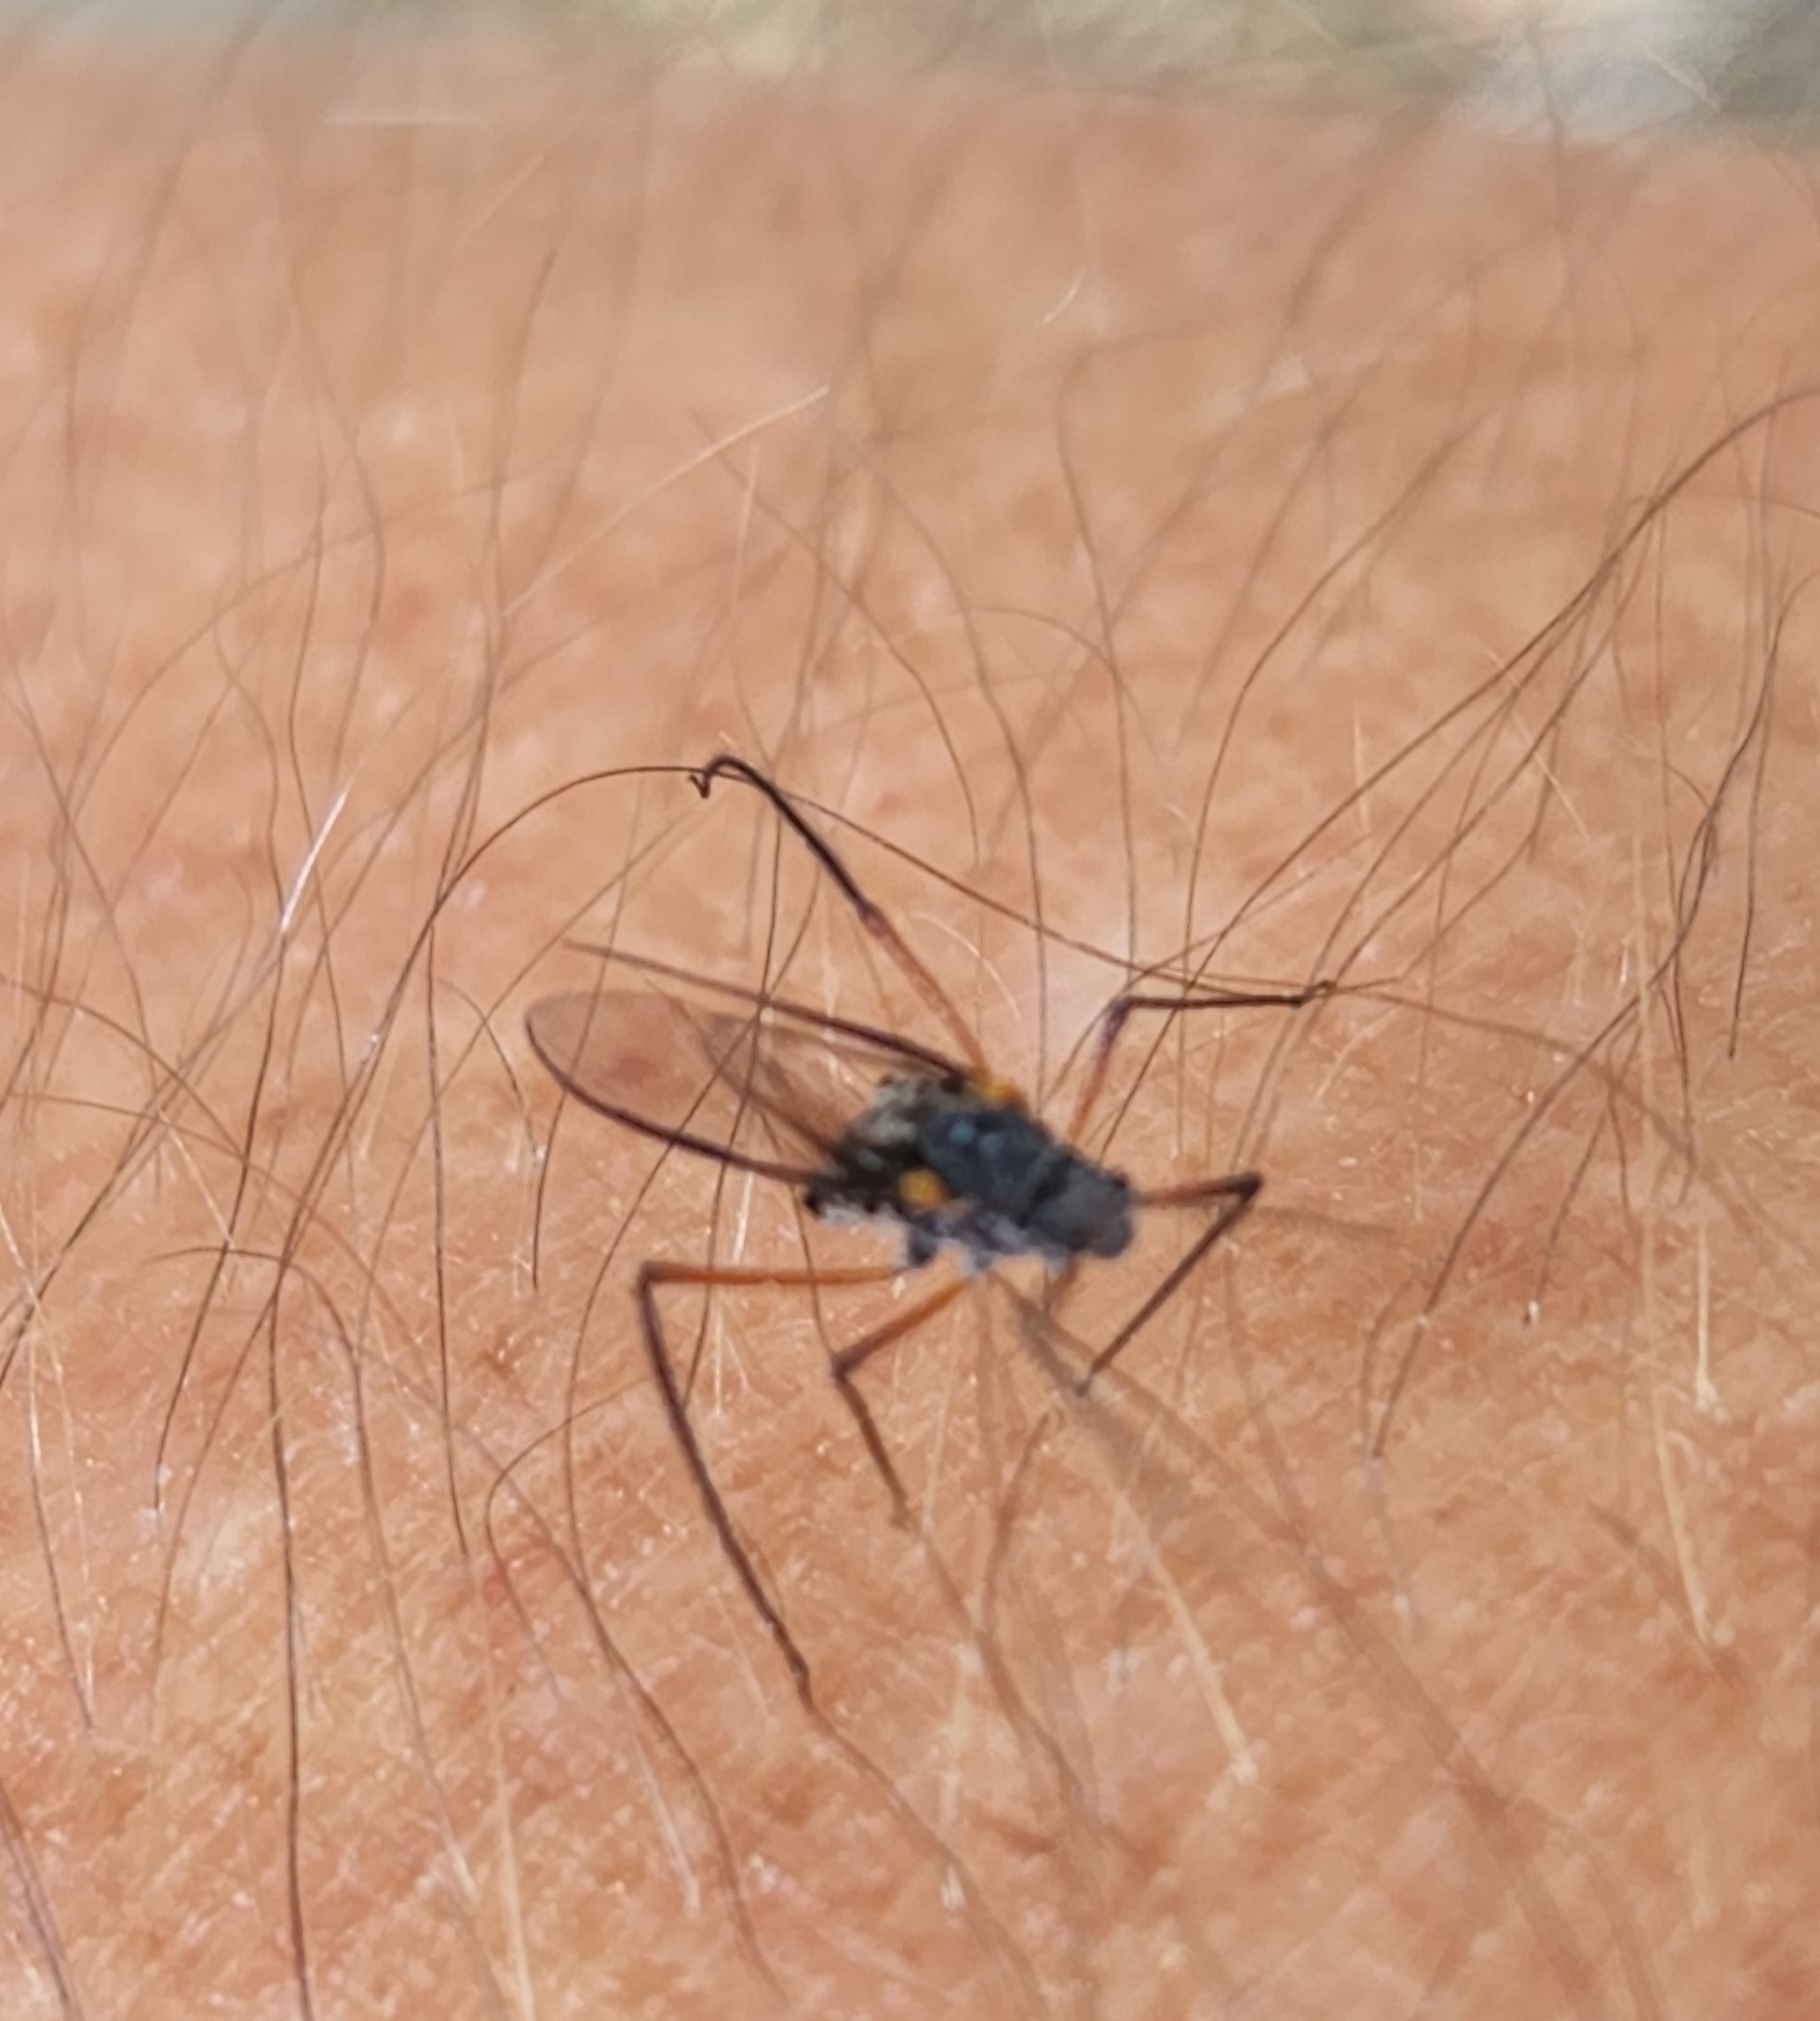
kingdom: Animalia
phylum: Arthropoda
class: Insecta
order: Hemiptera
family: Aphididae
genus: Longistigma
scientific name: Longistigma caryae
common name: Giant bark aphid
